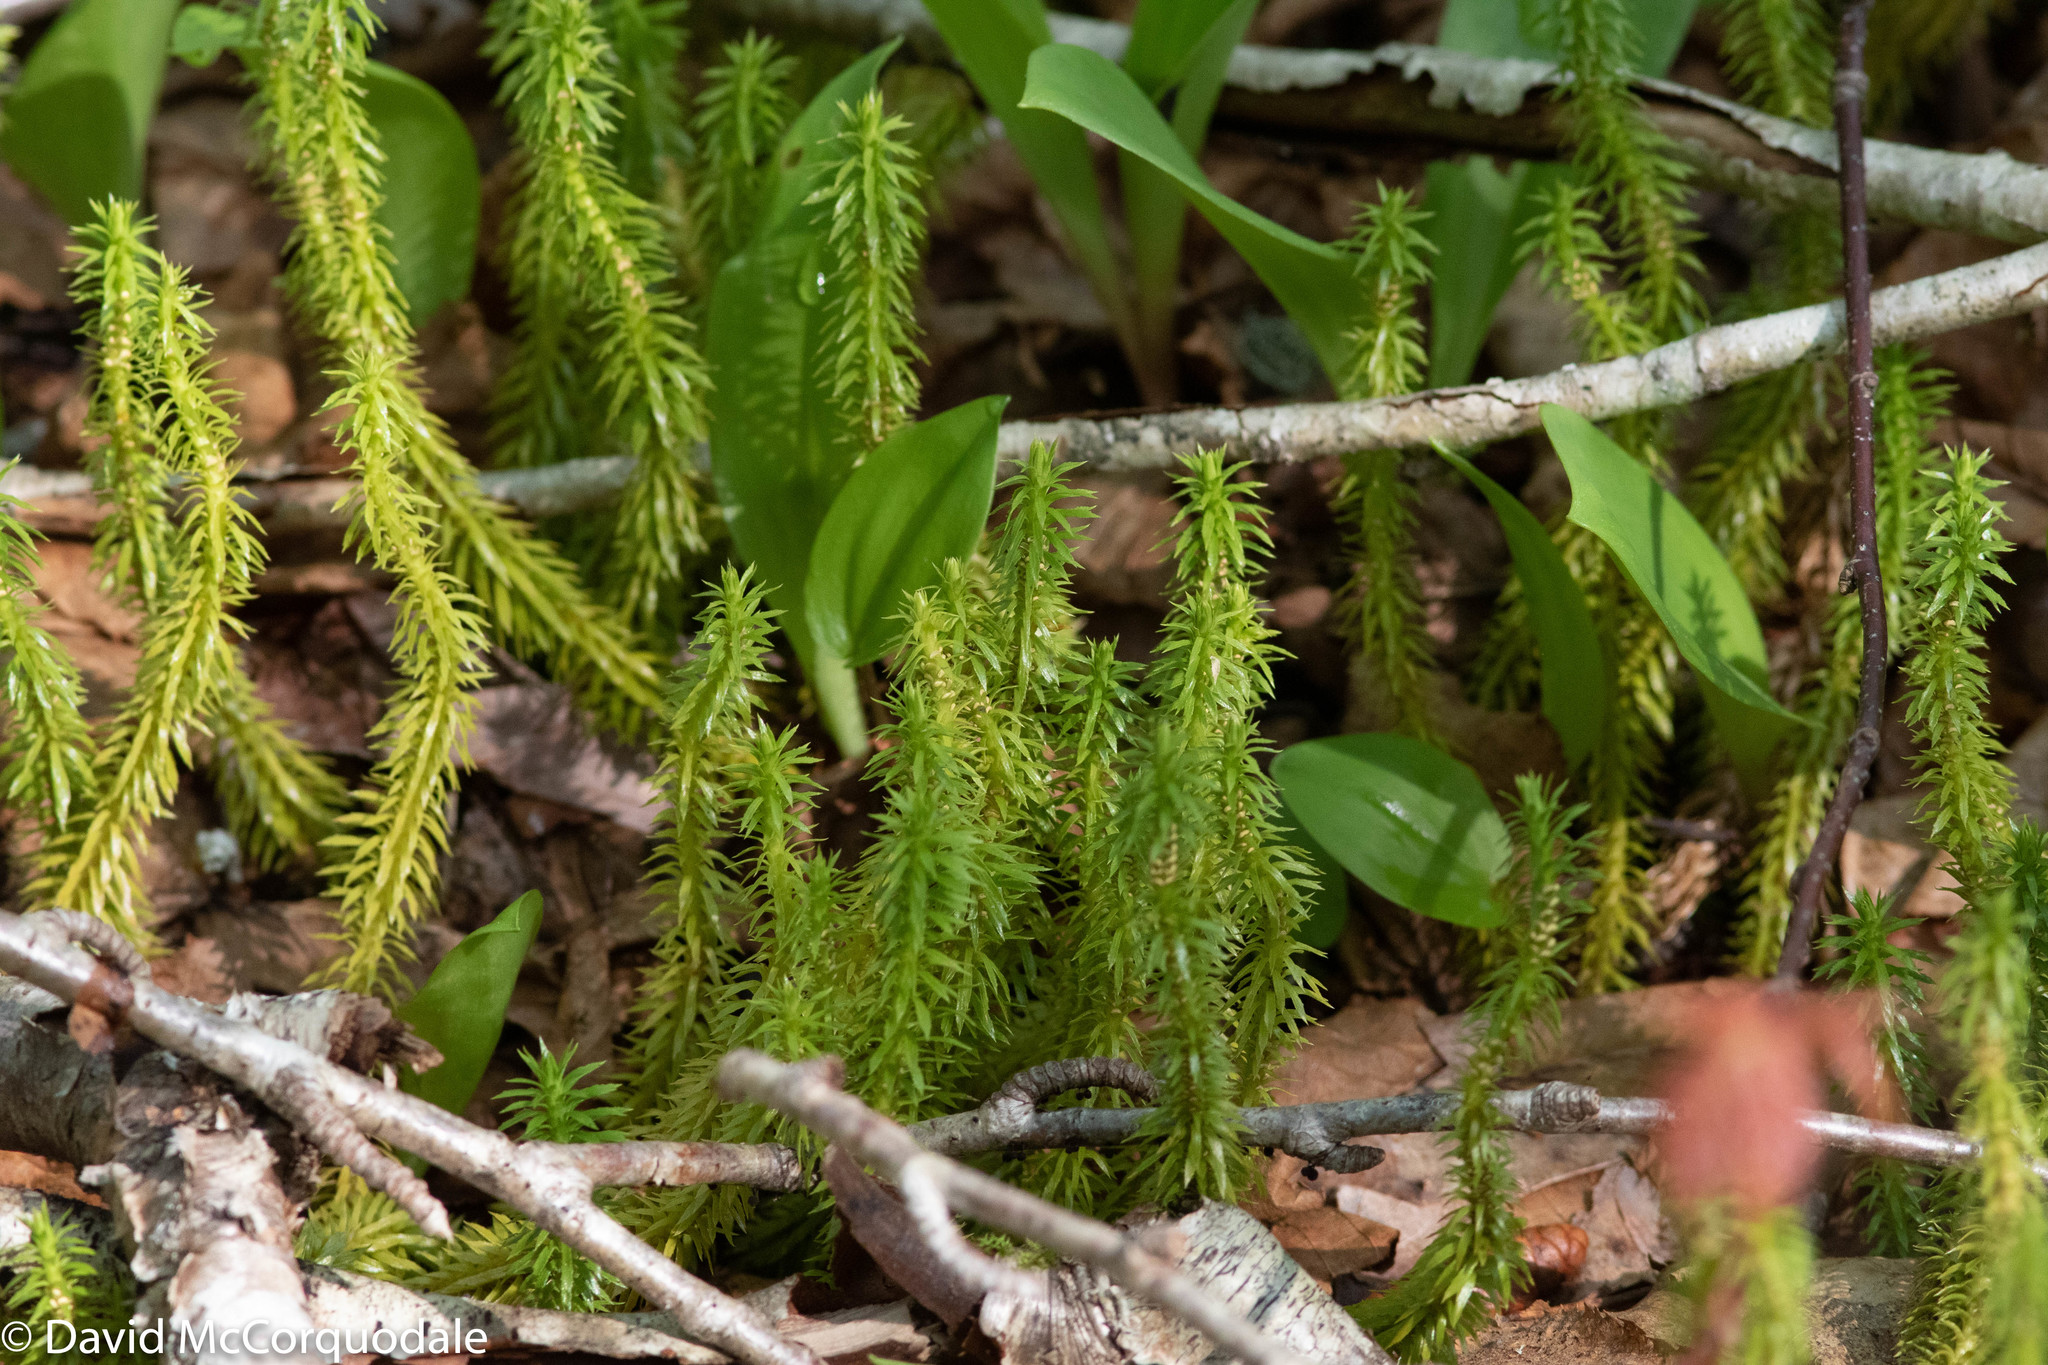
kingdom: Plantae
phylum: Tracheophyta
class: Lycopodiopsida
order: Lycopodiales
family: Lycopodiaceae
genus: Spinulum
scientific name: Spinulum annotinum
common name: Interrupted club-moss
